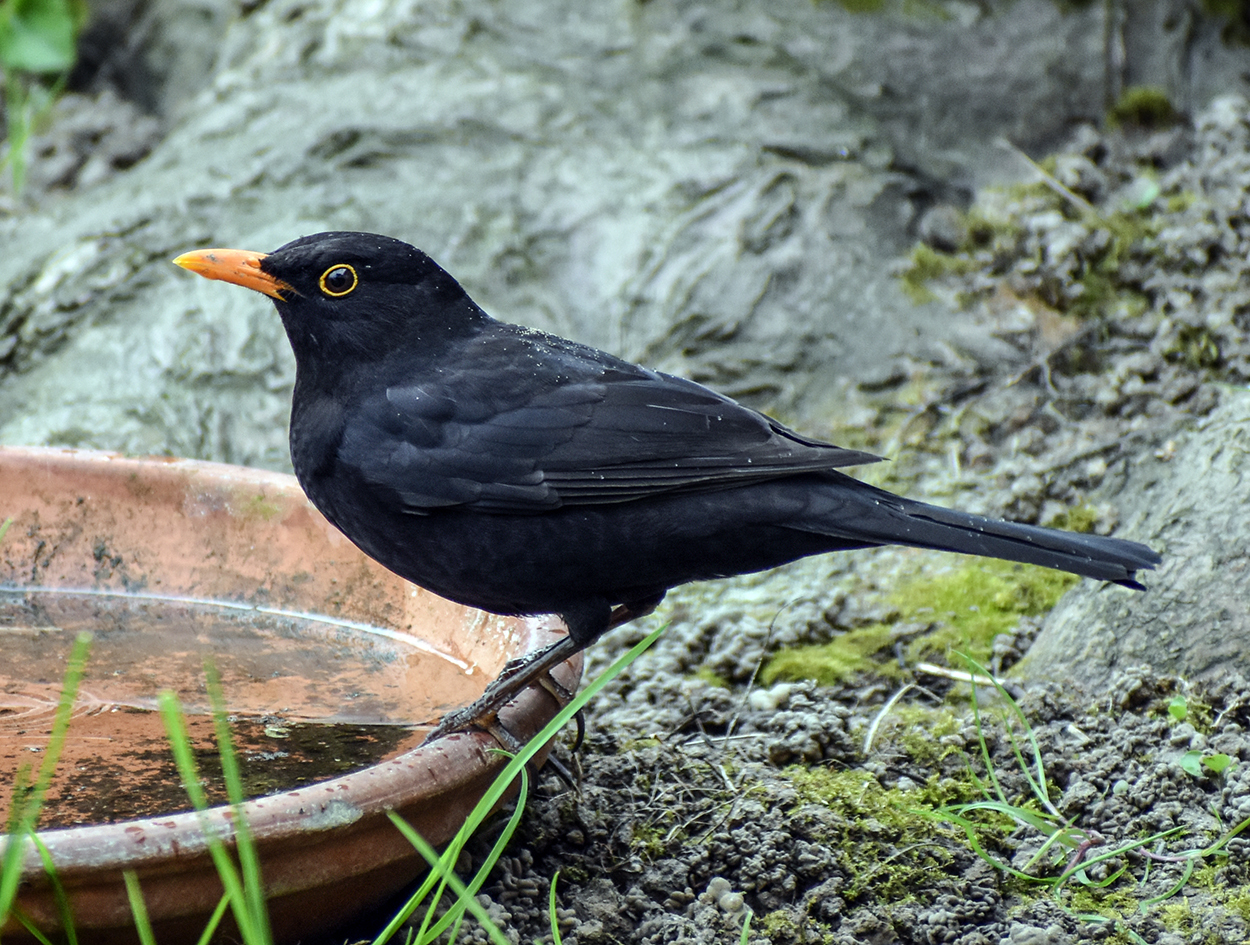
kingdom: Animalia
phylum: Chordata
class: Aves
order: Passeriformes
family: Turdidae
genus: Turdus
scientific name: Turdus merula
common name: Common blackbird
